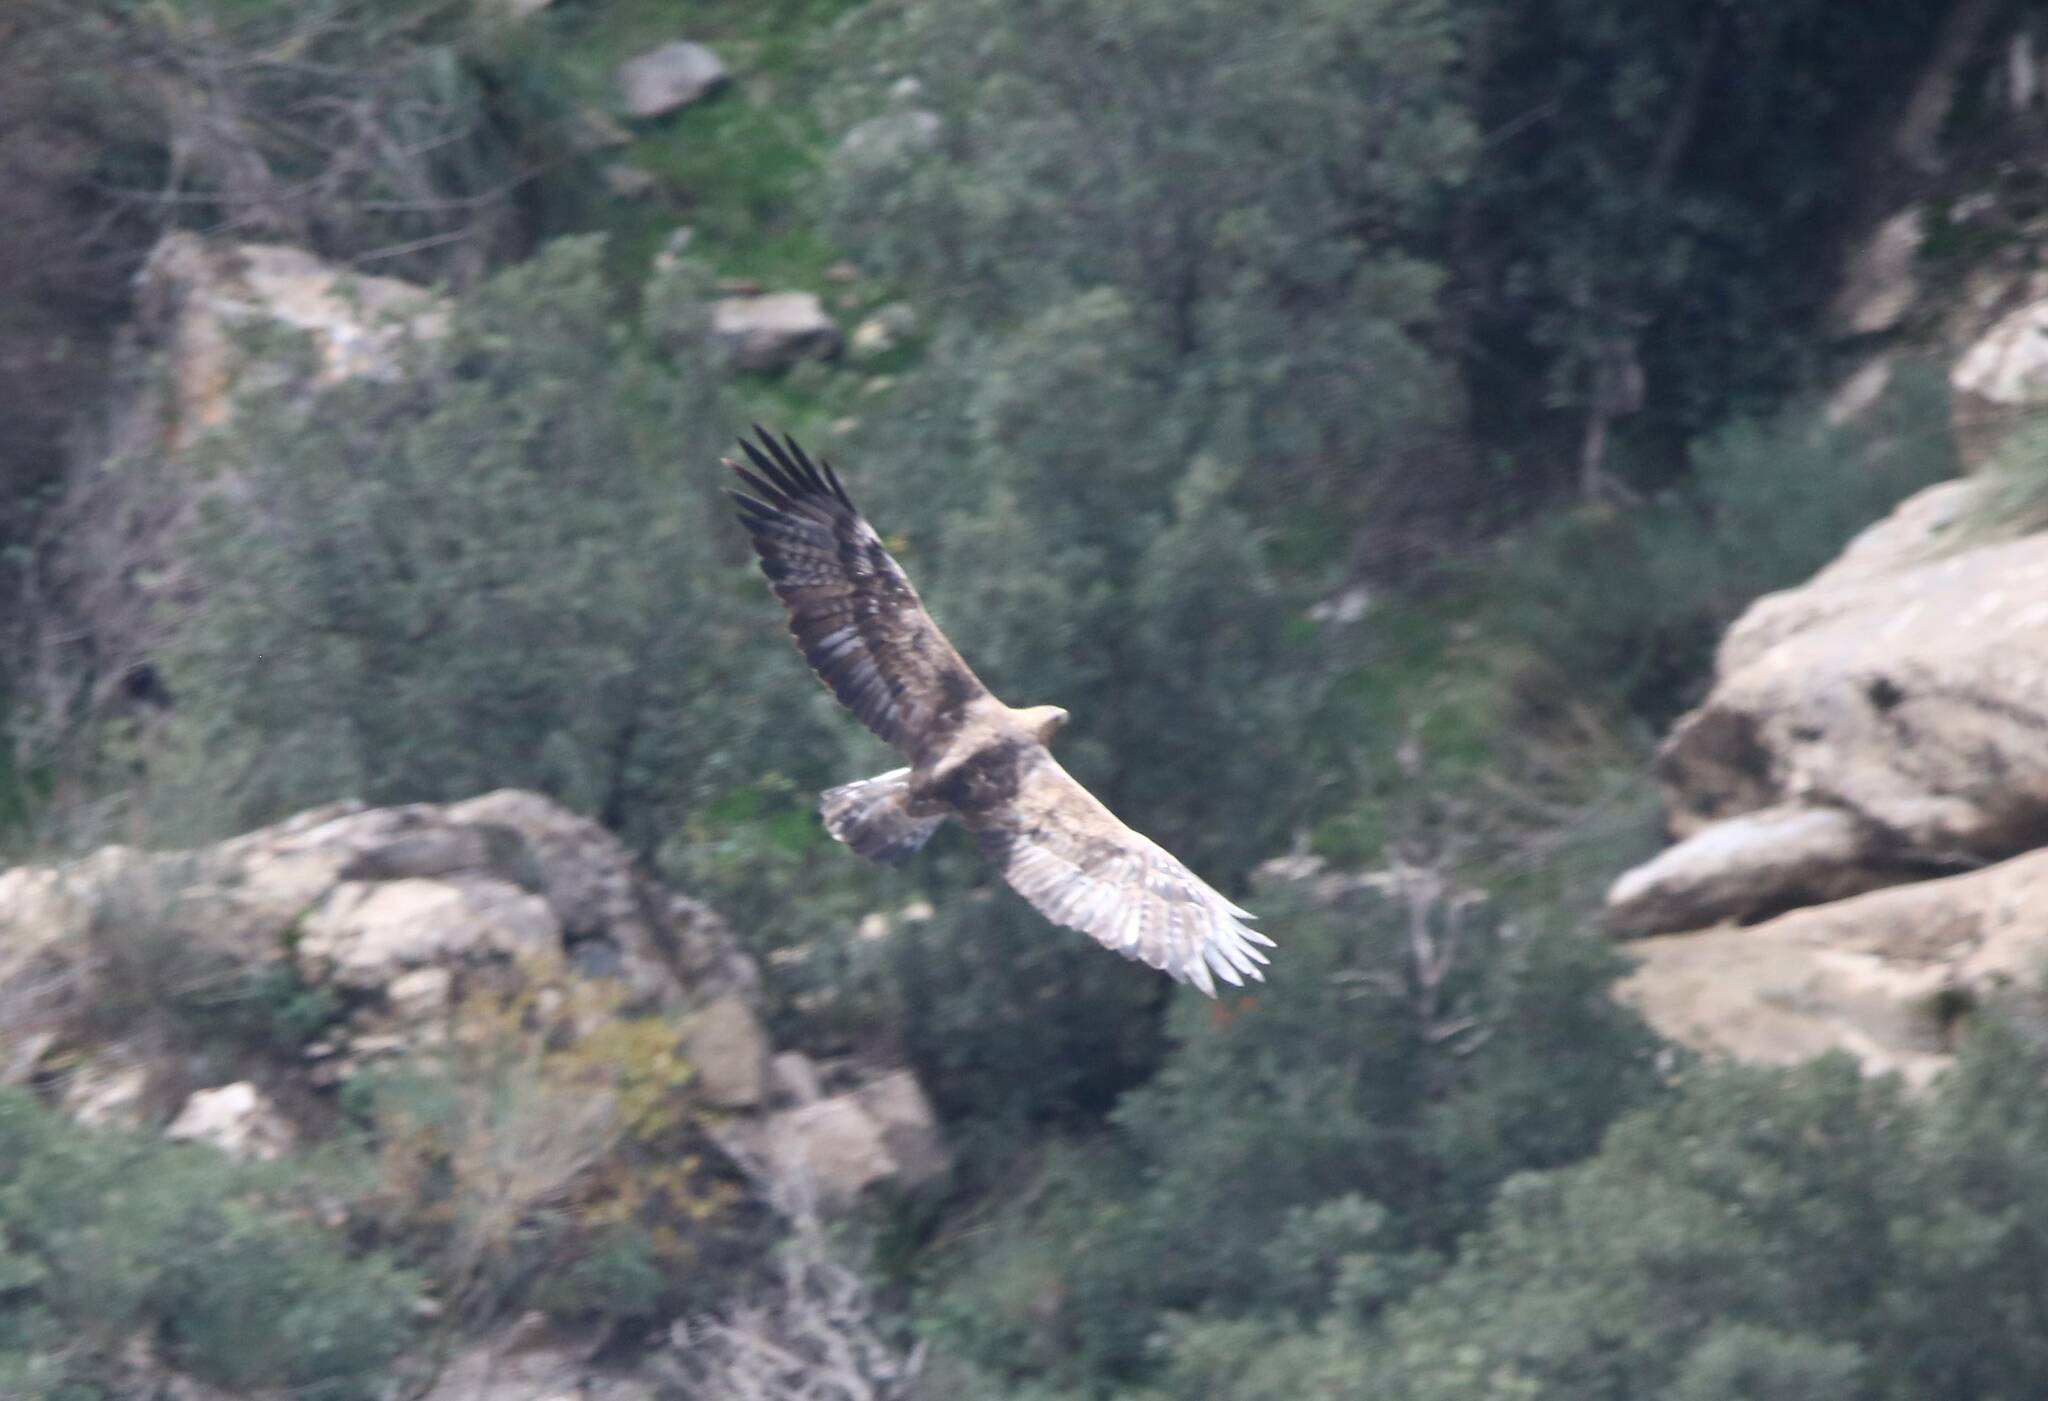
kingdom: Animalia
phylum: Chordata
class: Aves
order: Accipitriformes
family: Accipitridae
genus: Aquila
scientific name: Aquila chrysaetos
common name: Golden eagle
